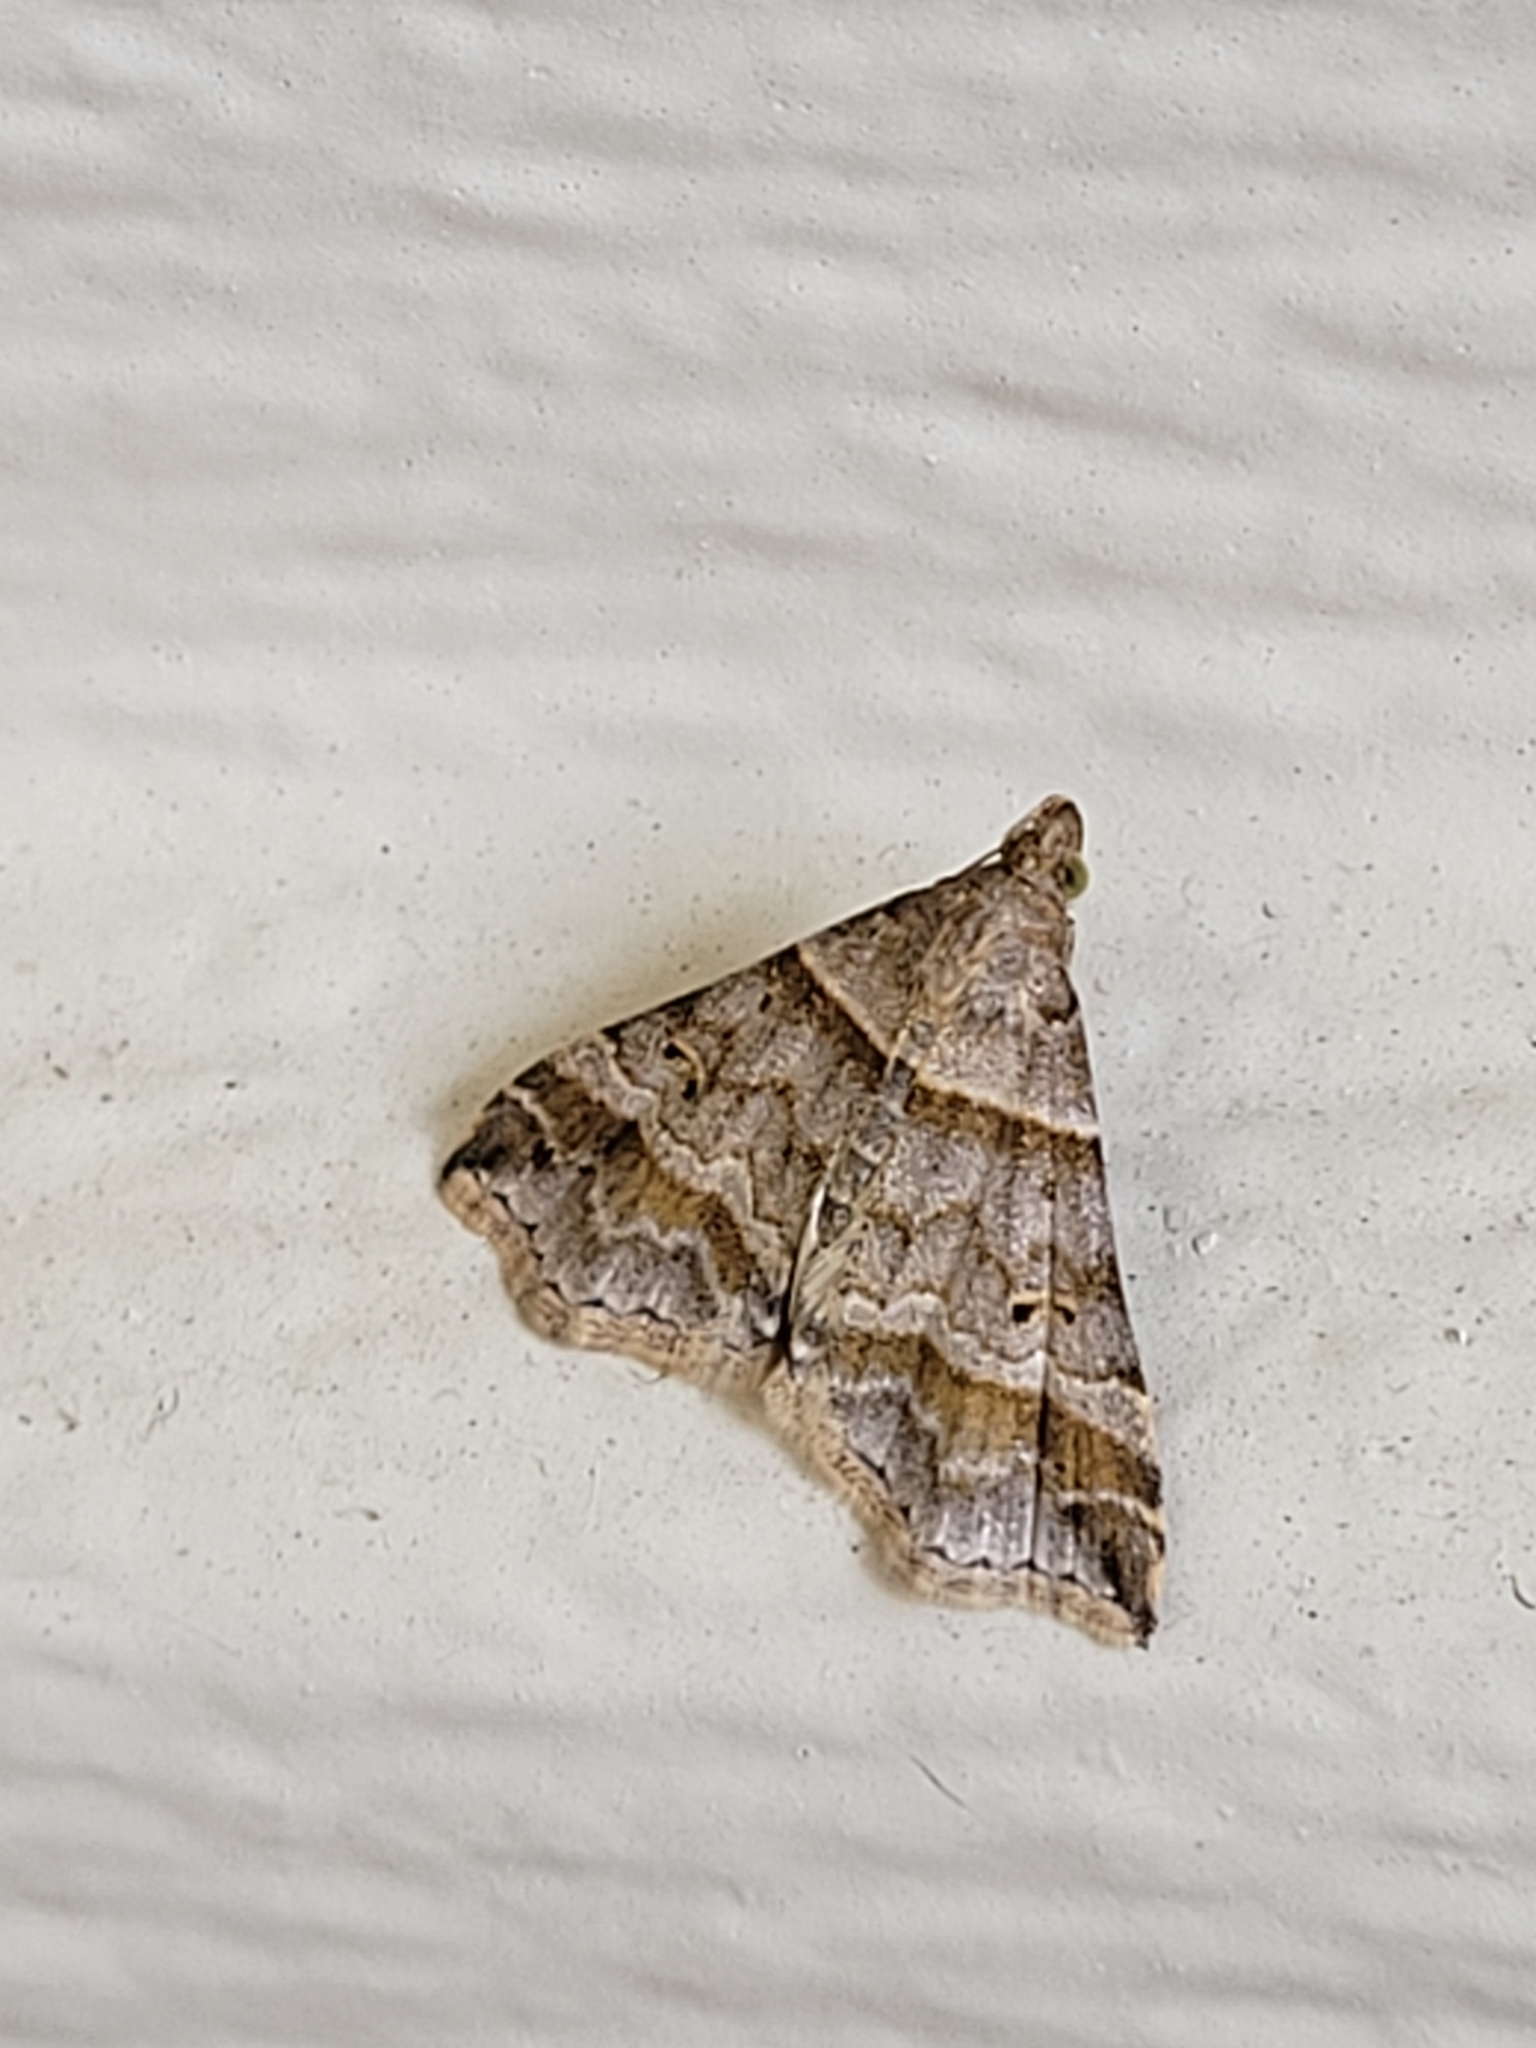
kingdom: Animalia
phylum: Arthropoda
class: Insecta
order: Lepidoptera
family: Erebidae
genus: Phaeolita
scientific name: Phaeolita pyramusalis
